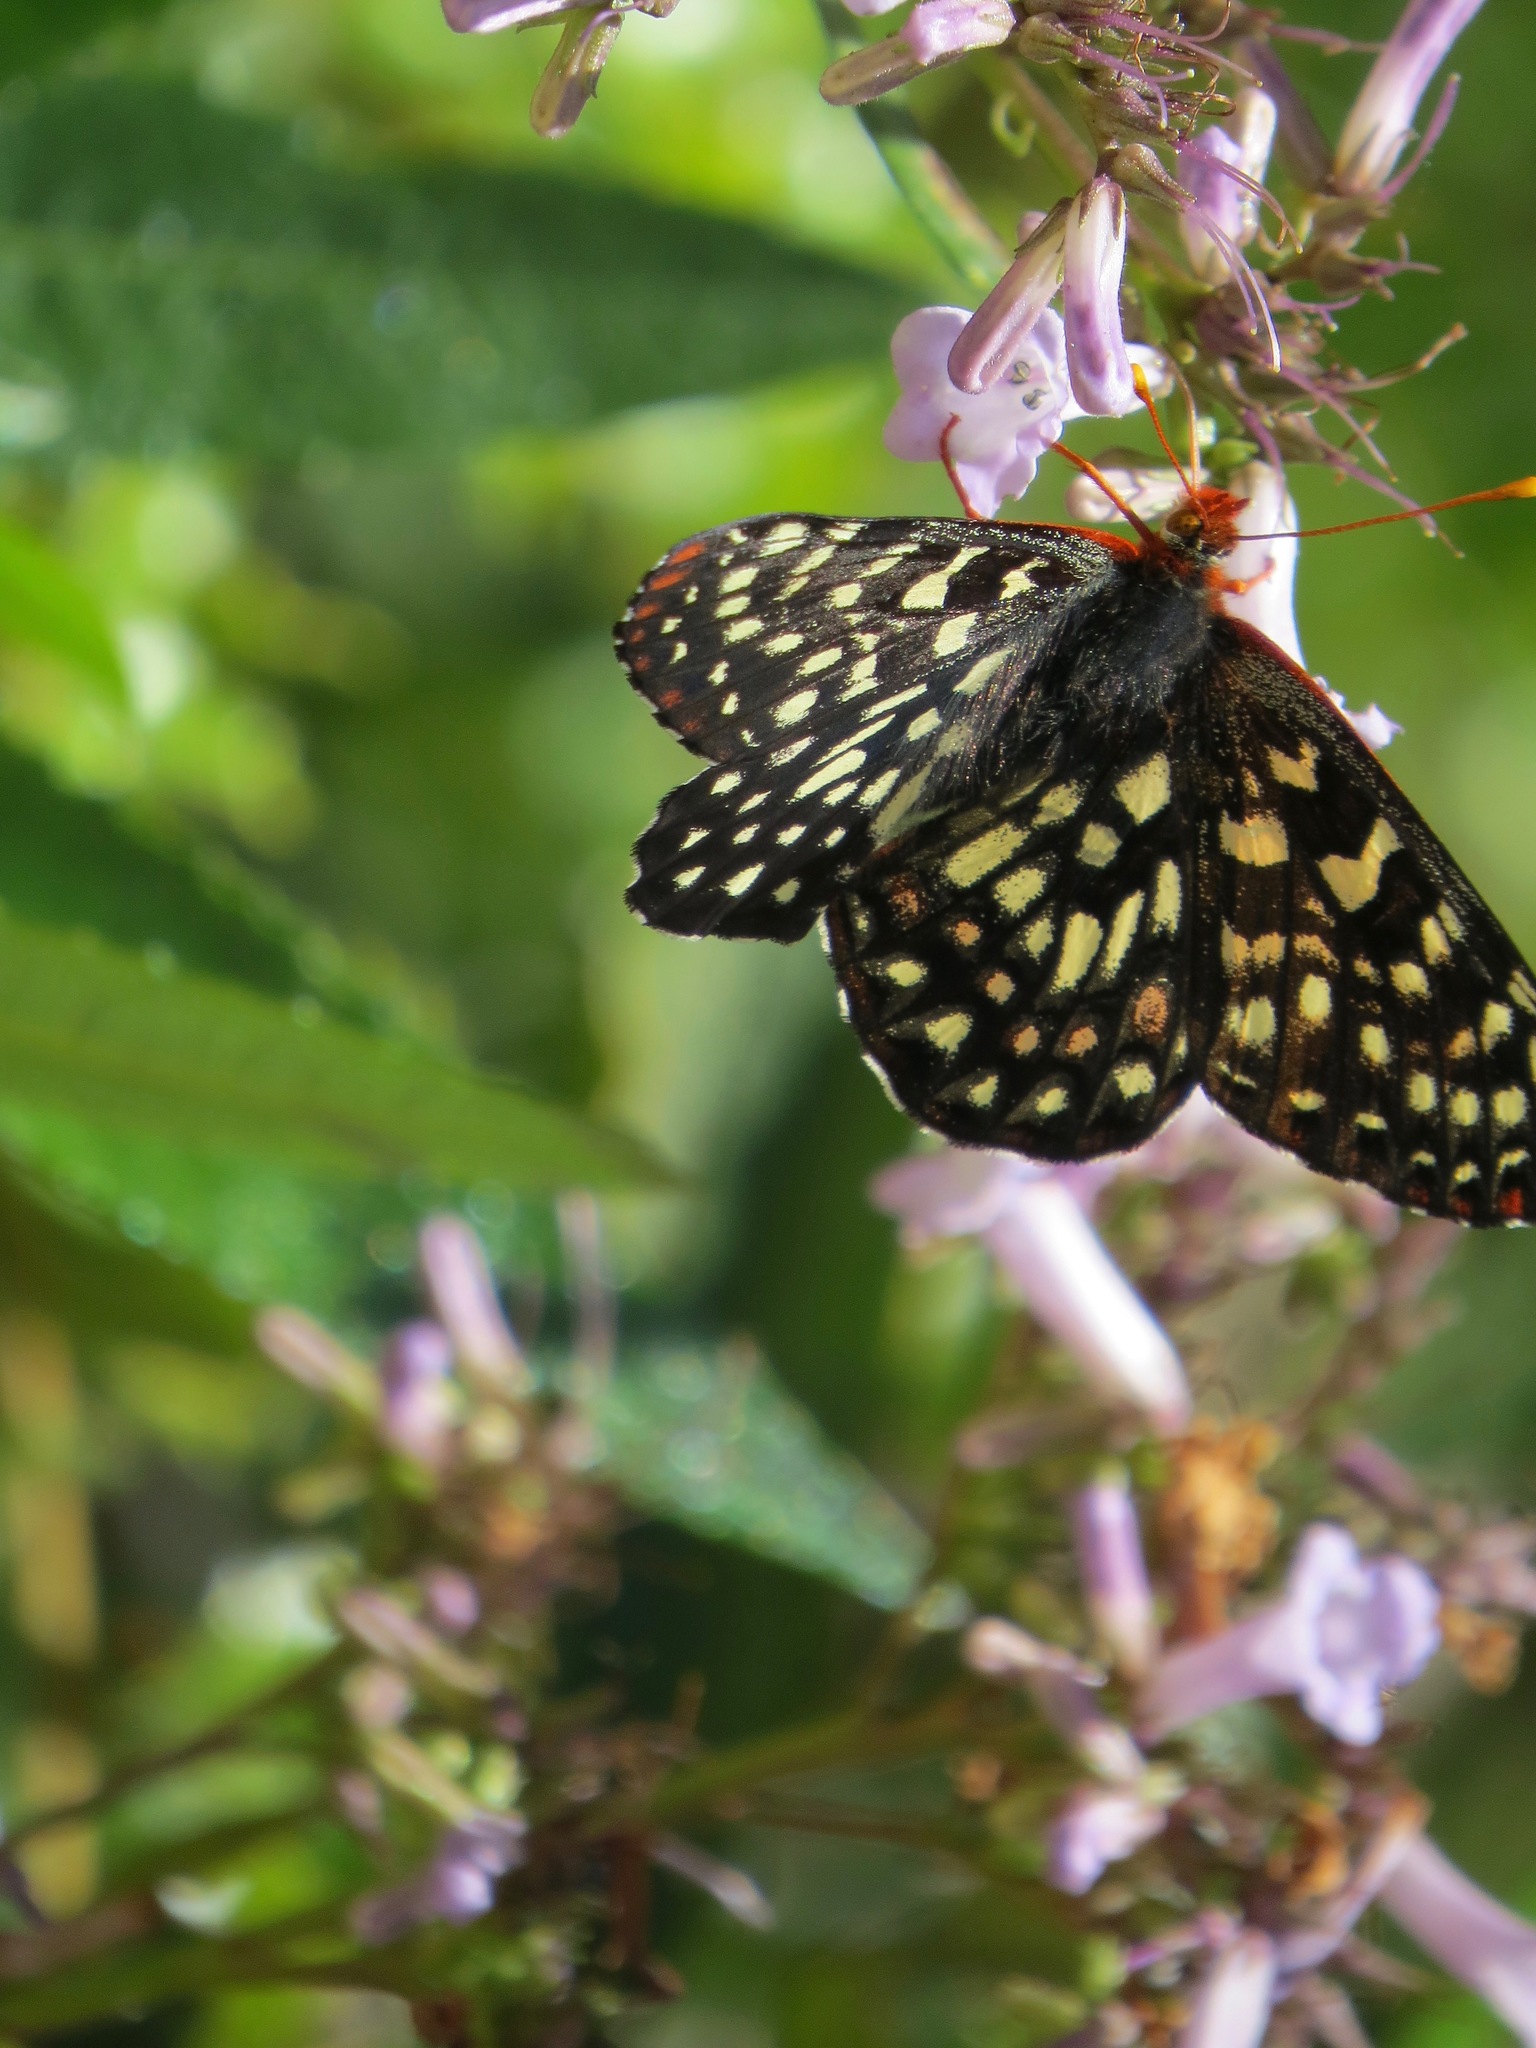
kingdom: Animalia
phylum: Arthropoda
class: Insecta
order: Lepidoptera
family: Nymphalidae
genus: Occidryas
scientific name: Occidryas chalcedona
